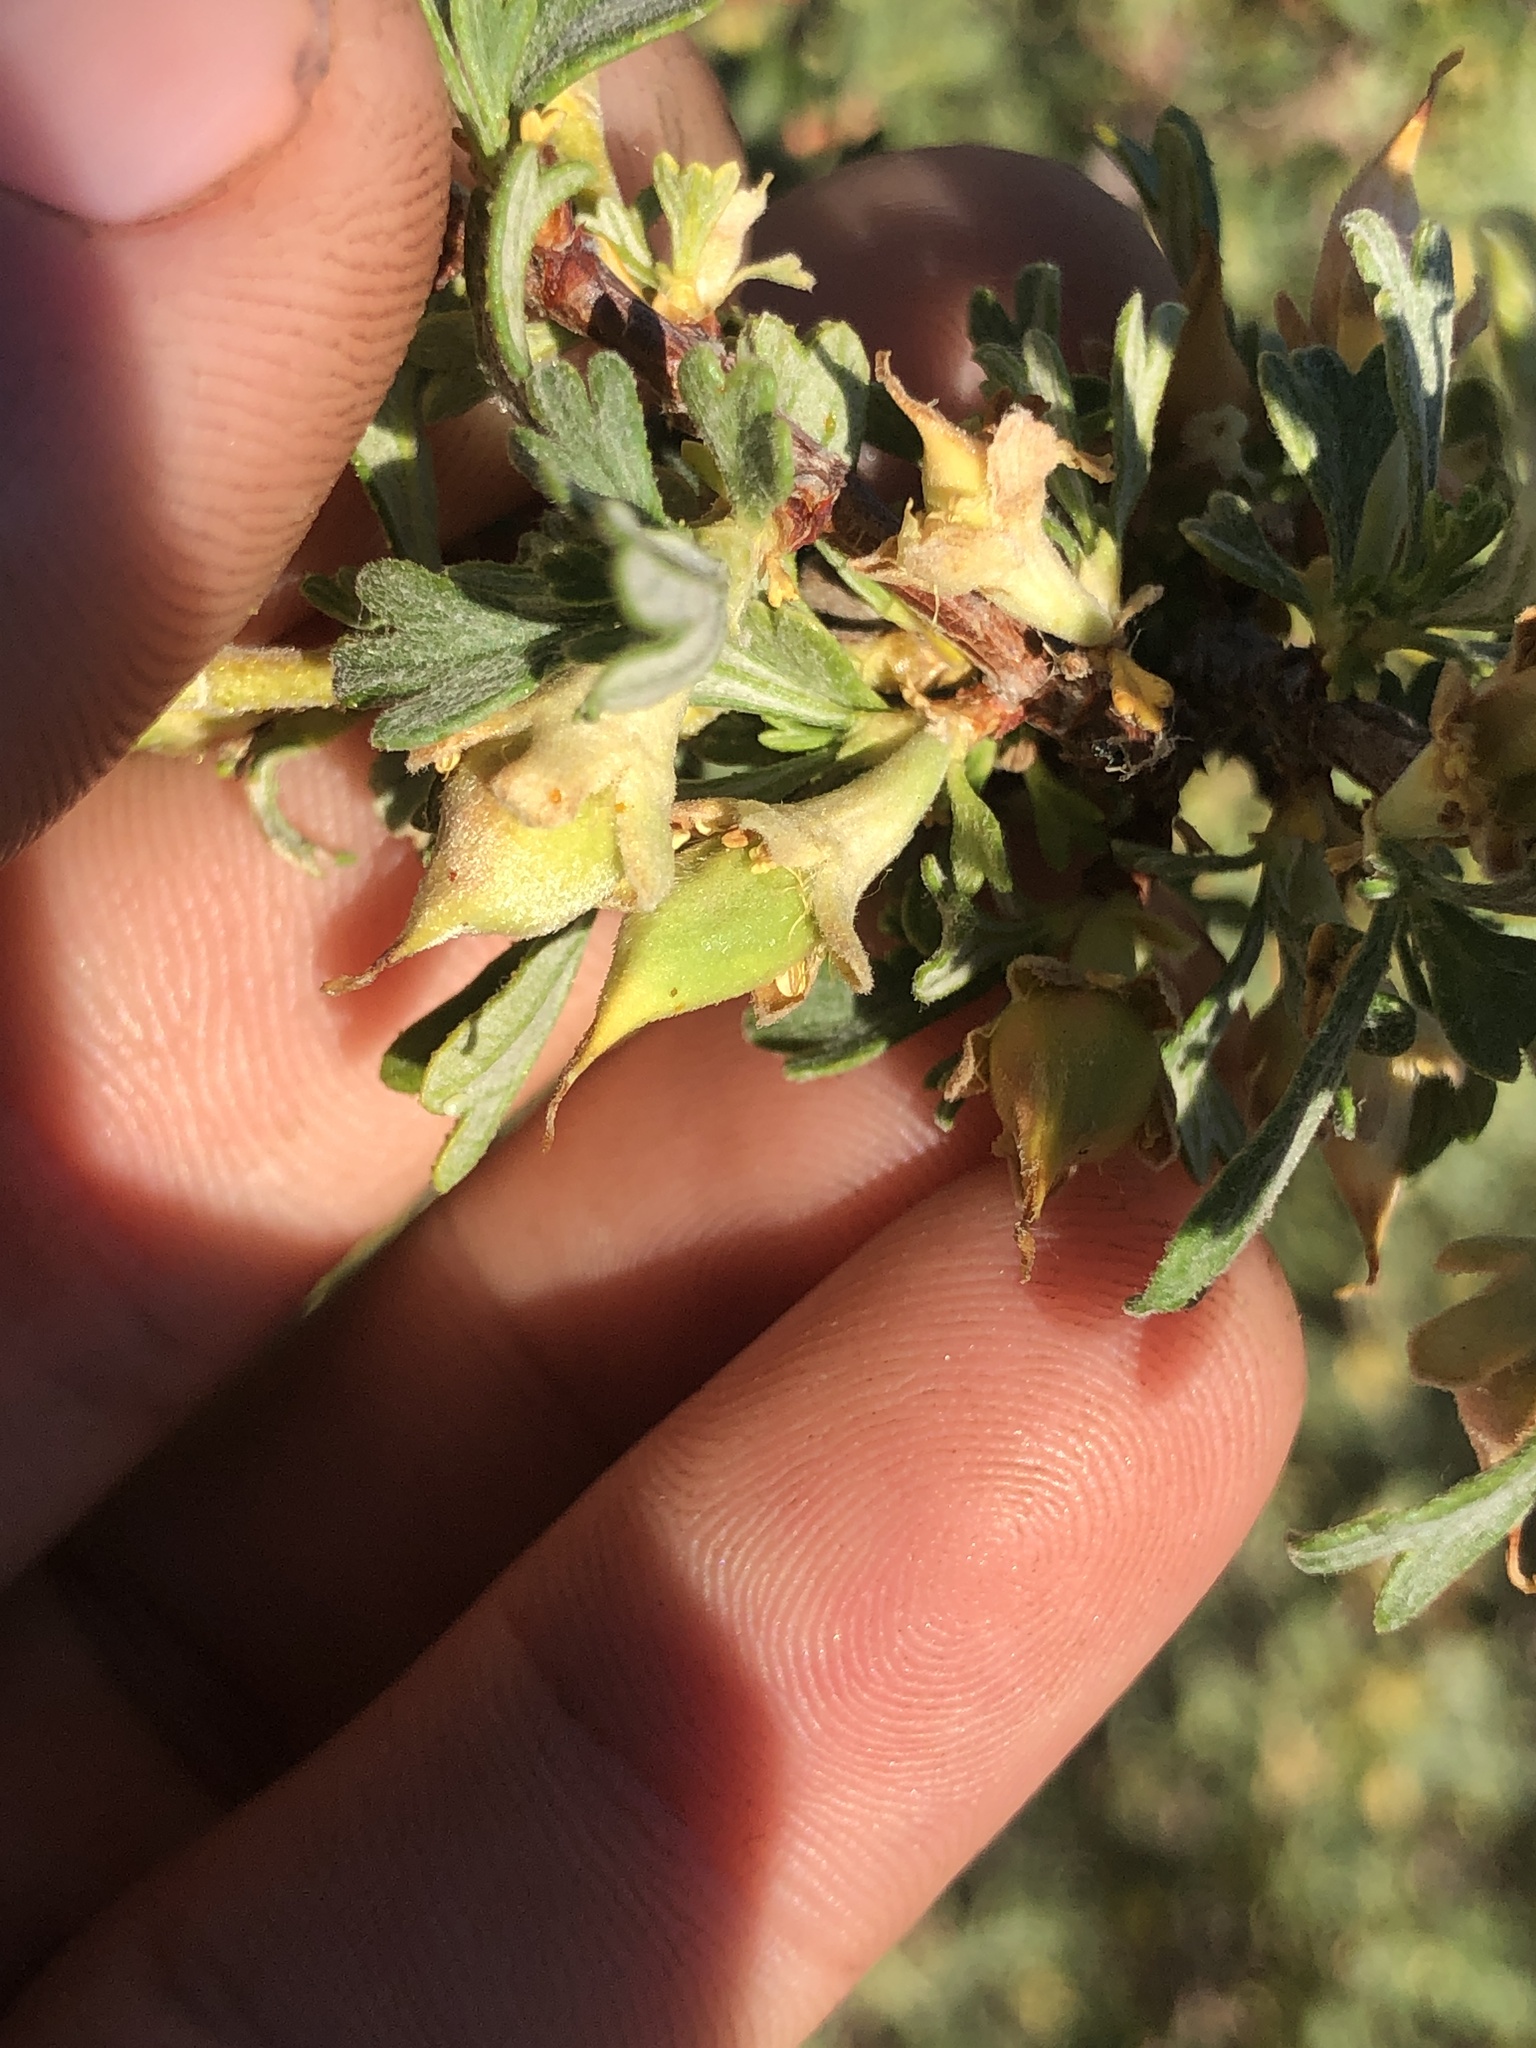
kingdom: Plantae
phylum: Tracheophyta
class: Magnoliopsida
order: Rosales
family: Rosaceae
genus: Purshia
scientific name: Purshia tridentata
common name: Antelope bitterbrush
